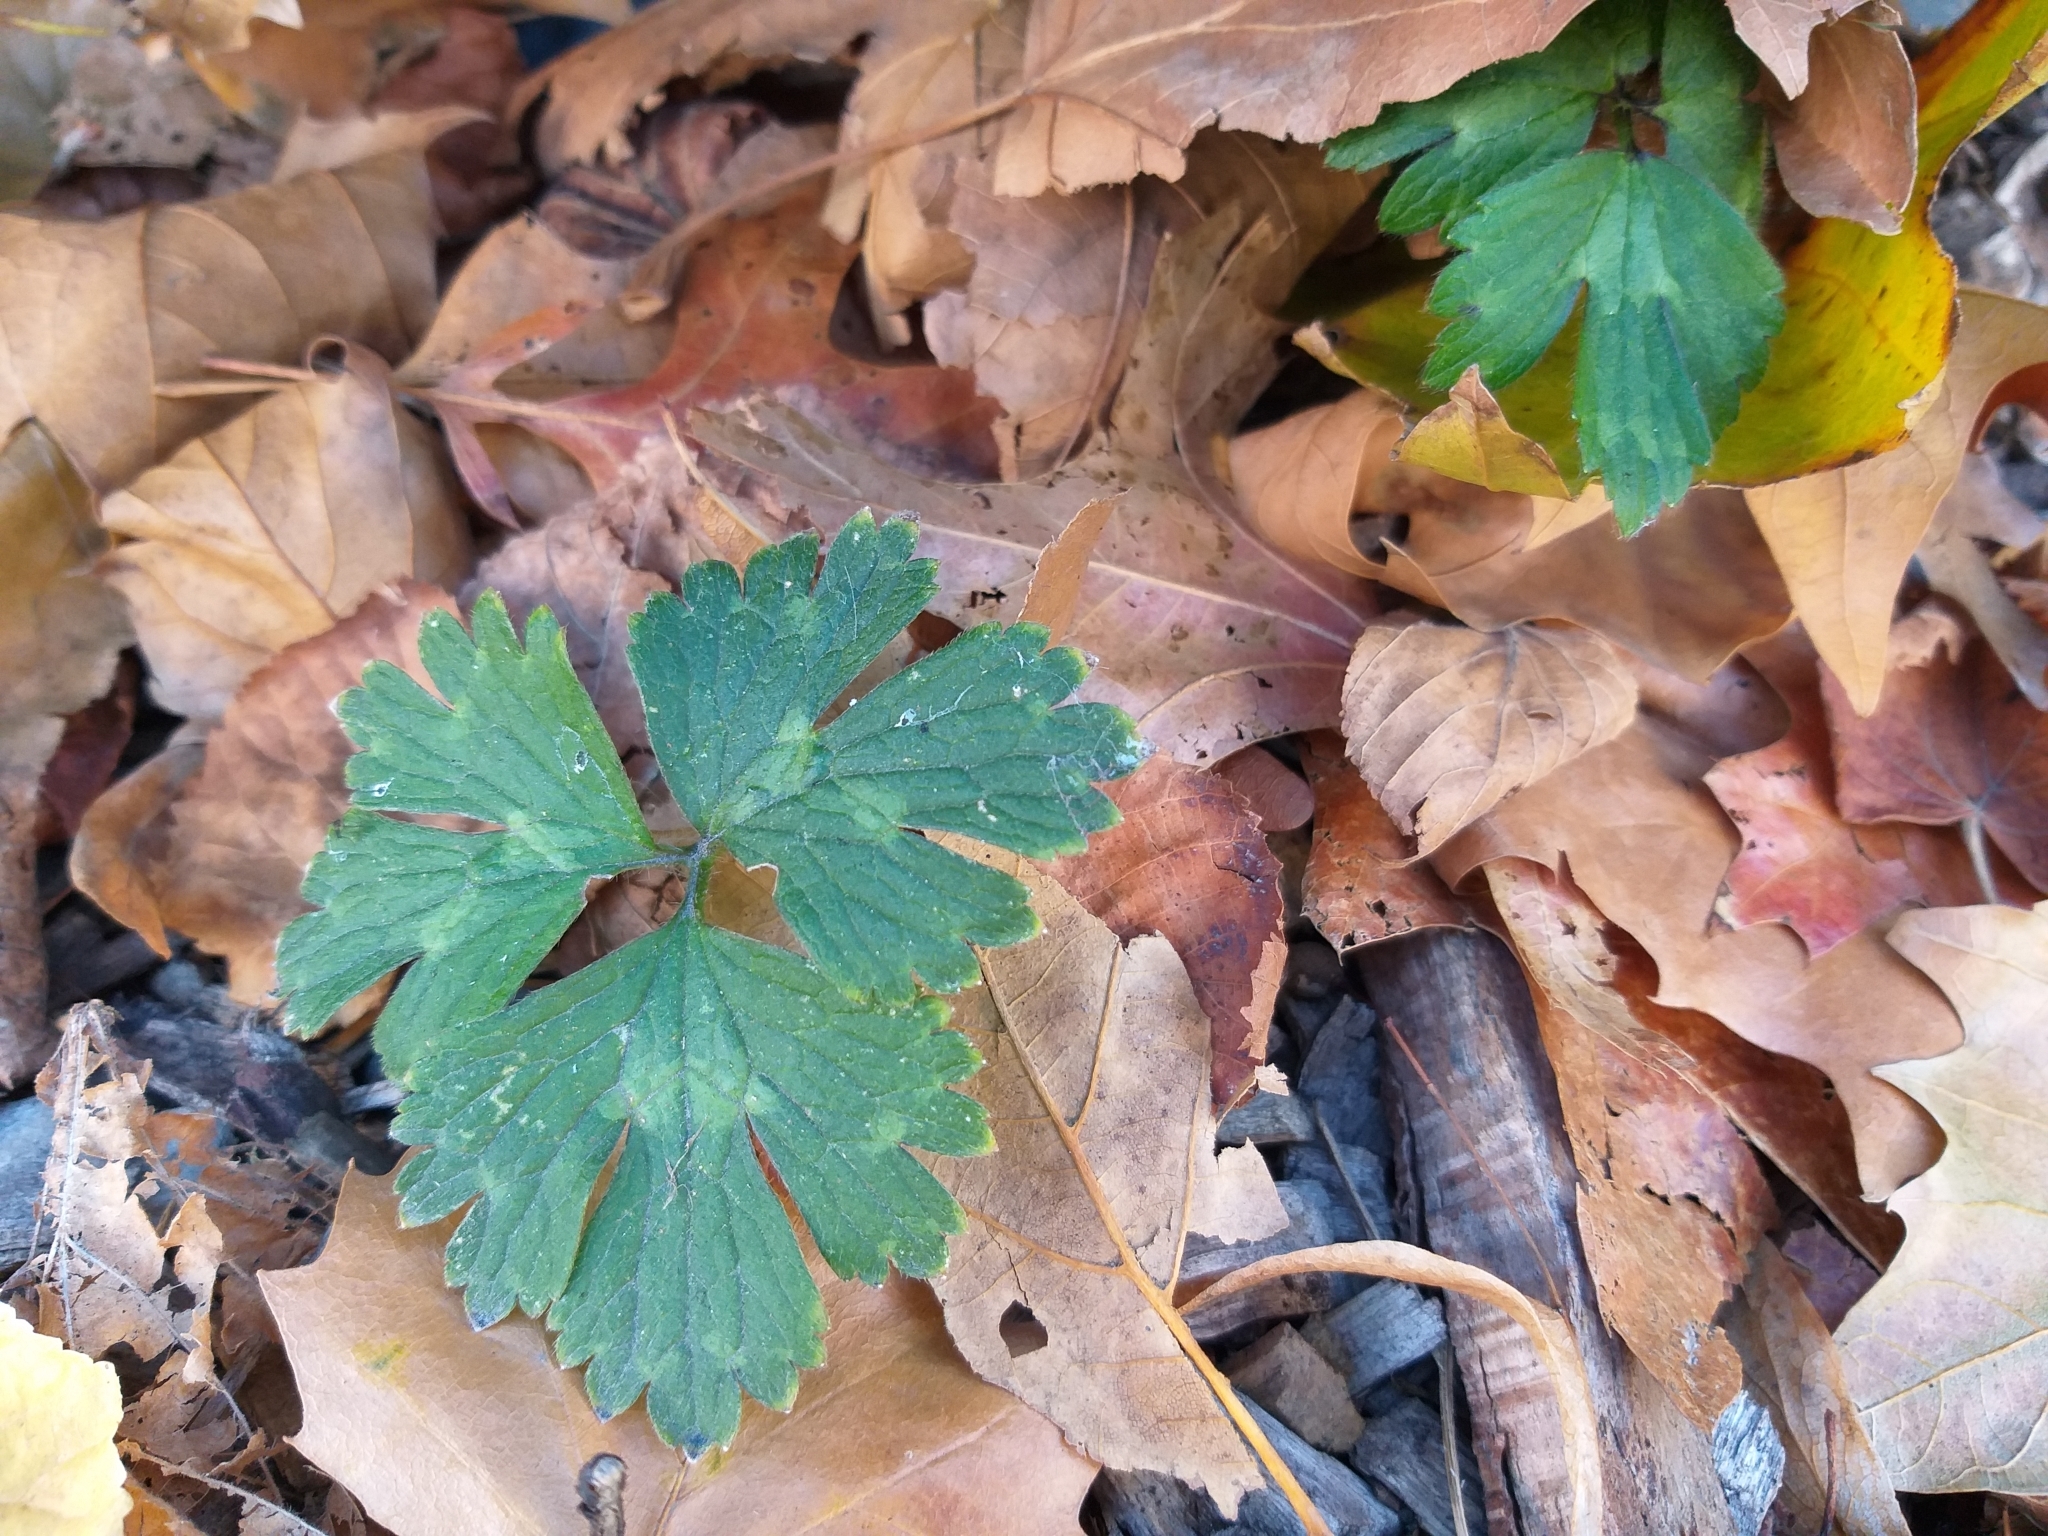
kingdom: Plantae
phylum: Tracheophyta
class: Magnoliopsida
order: Ranunculales
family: Ranunculaceae
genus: Ranunculus
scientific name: Ranunculus repens
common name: Creeping buttercup
